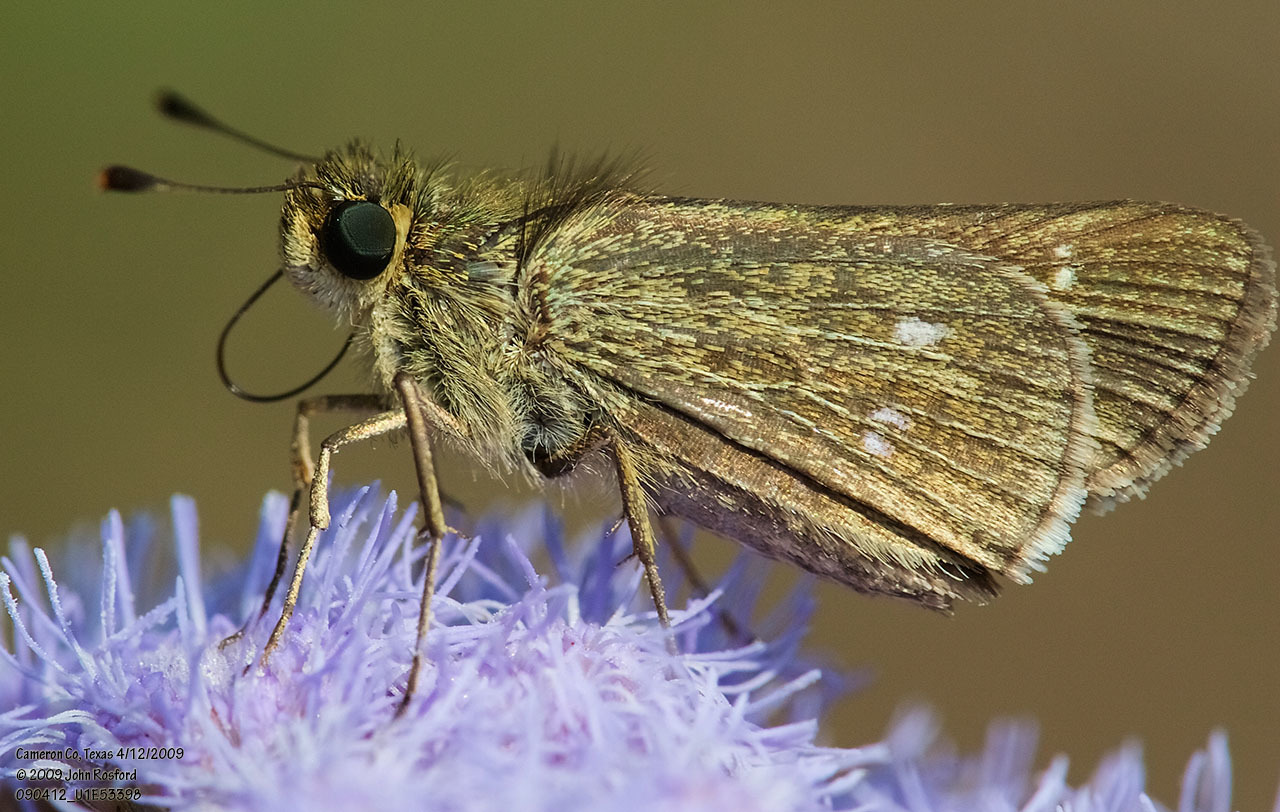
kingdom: Animalia
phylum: Arthropoda
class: Insecta
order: Lepidoptera
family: Hesperiidae
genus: Panoquina
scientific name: Panoquina panoquinoides
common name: Beach skipper
